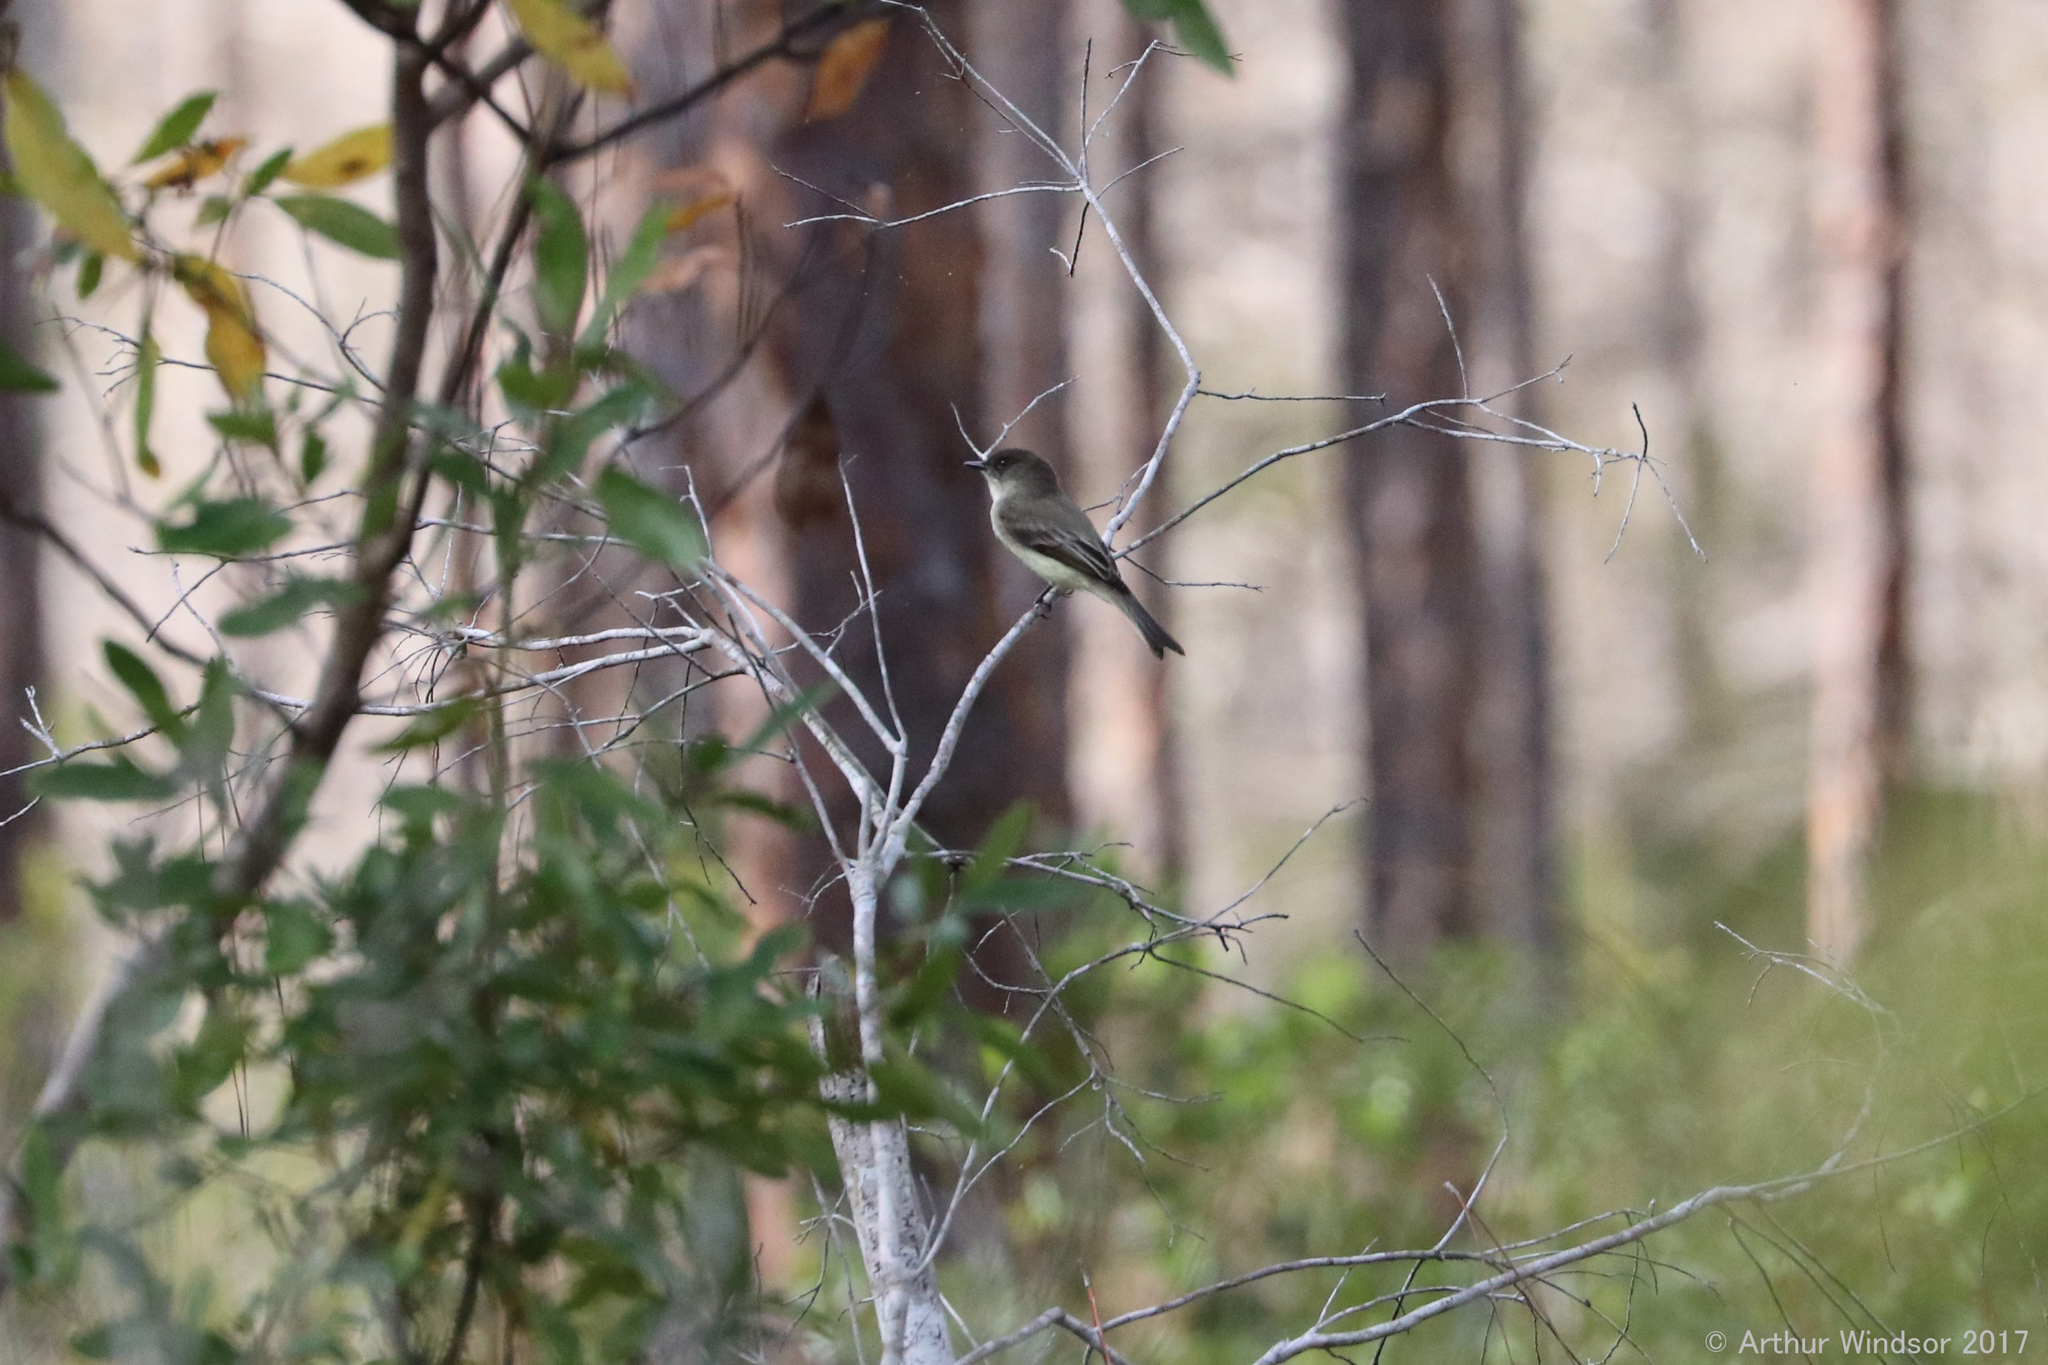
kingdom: Animalia
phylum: Chordata
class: Aves
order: Passeriformes
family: Tyrannidae
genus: Sayornis
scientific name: Sayornis phoebe
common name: Eastern phoebe
